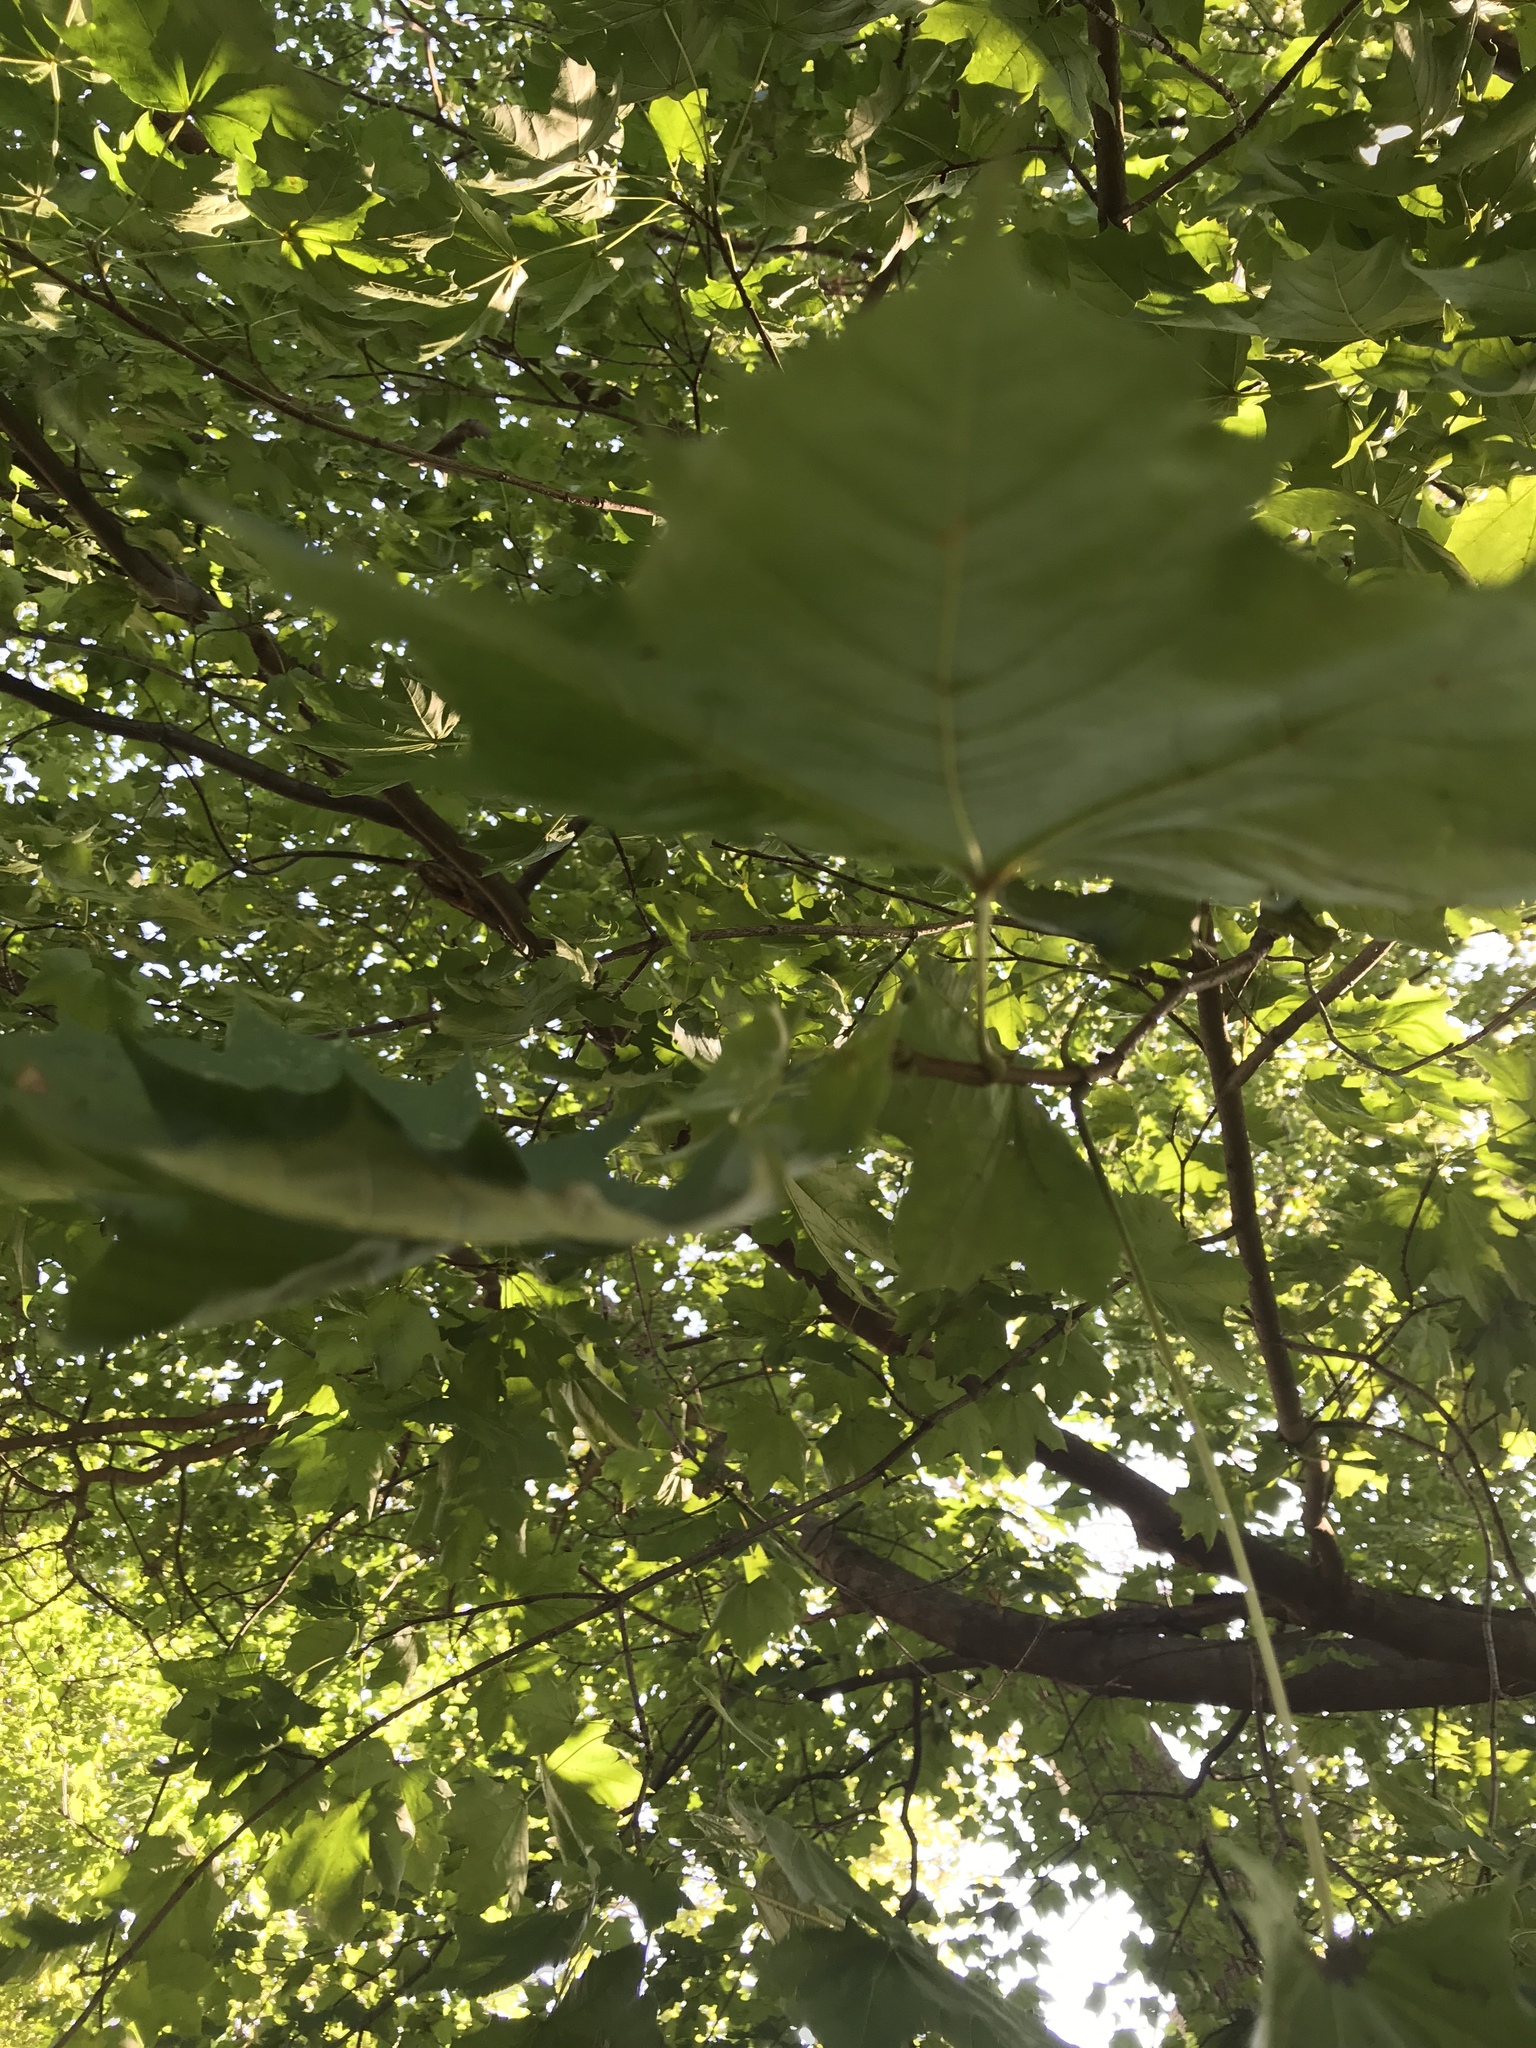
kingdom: Plantae
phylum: Tracheophyta
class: Magnoliopsida
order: Sapindales
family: Sapindaceae
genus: Acer
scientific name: Acer platanoides
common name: Norway maple
